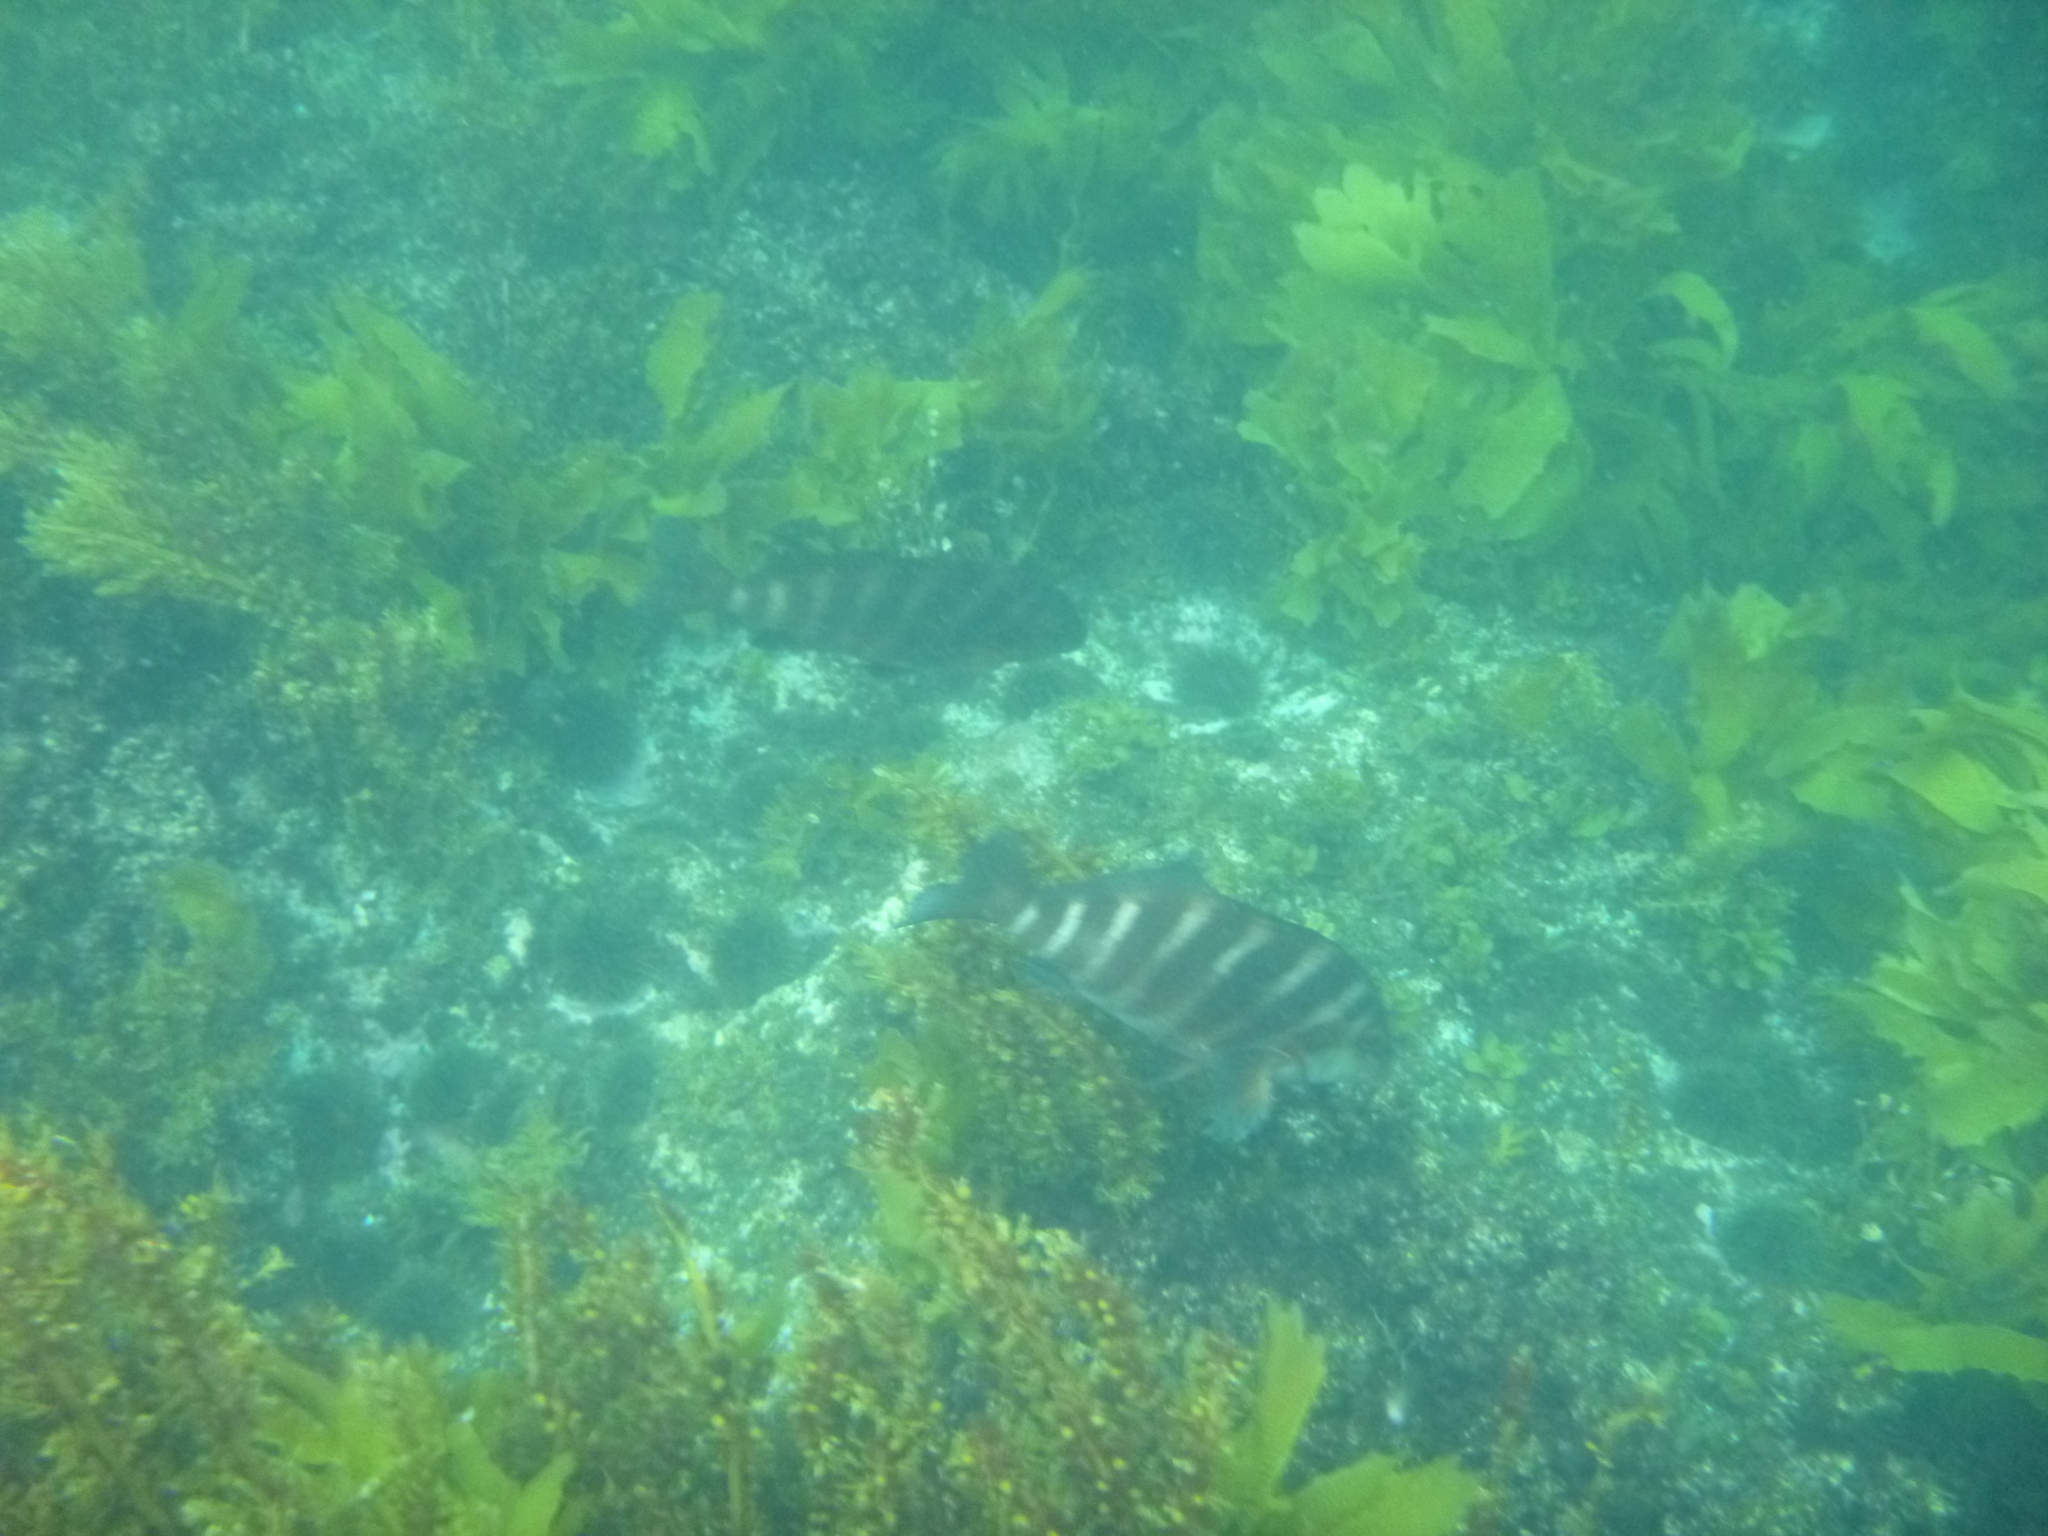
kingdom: Animalia
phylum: Chordata
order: Perciformes
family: Cheilodactylidae
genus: Cheilodactylus
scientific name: Cheilodactylus spectabilis
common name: Red moki
